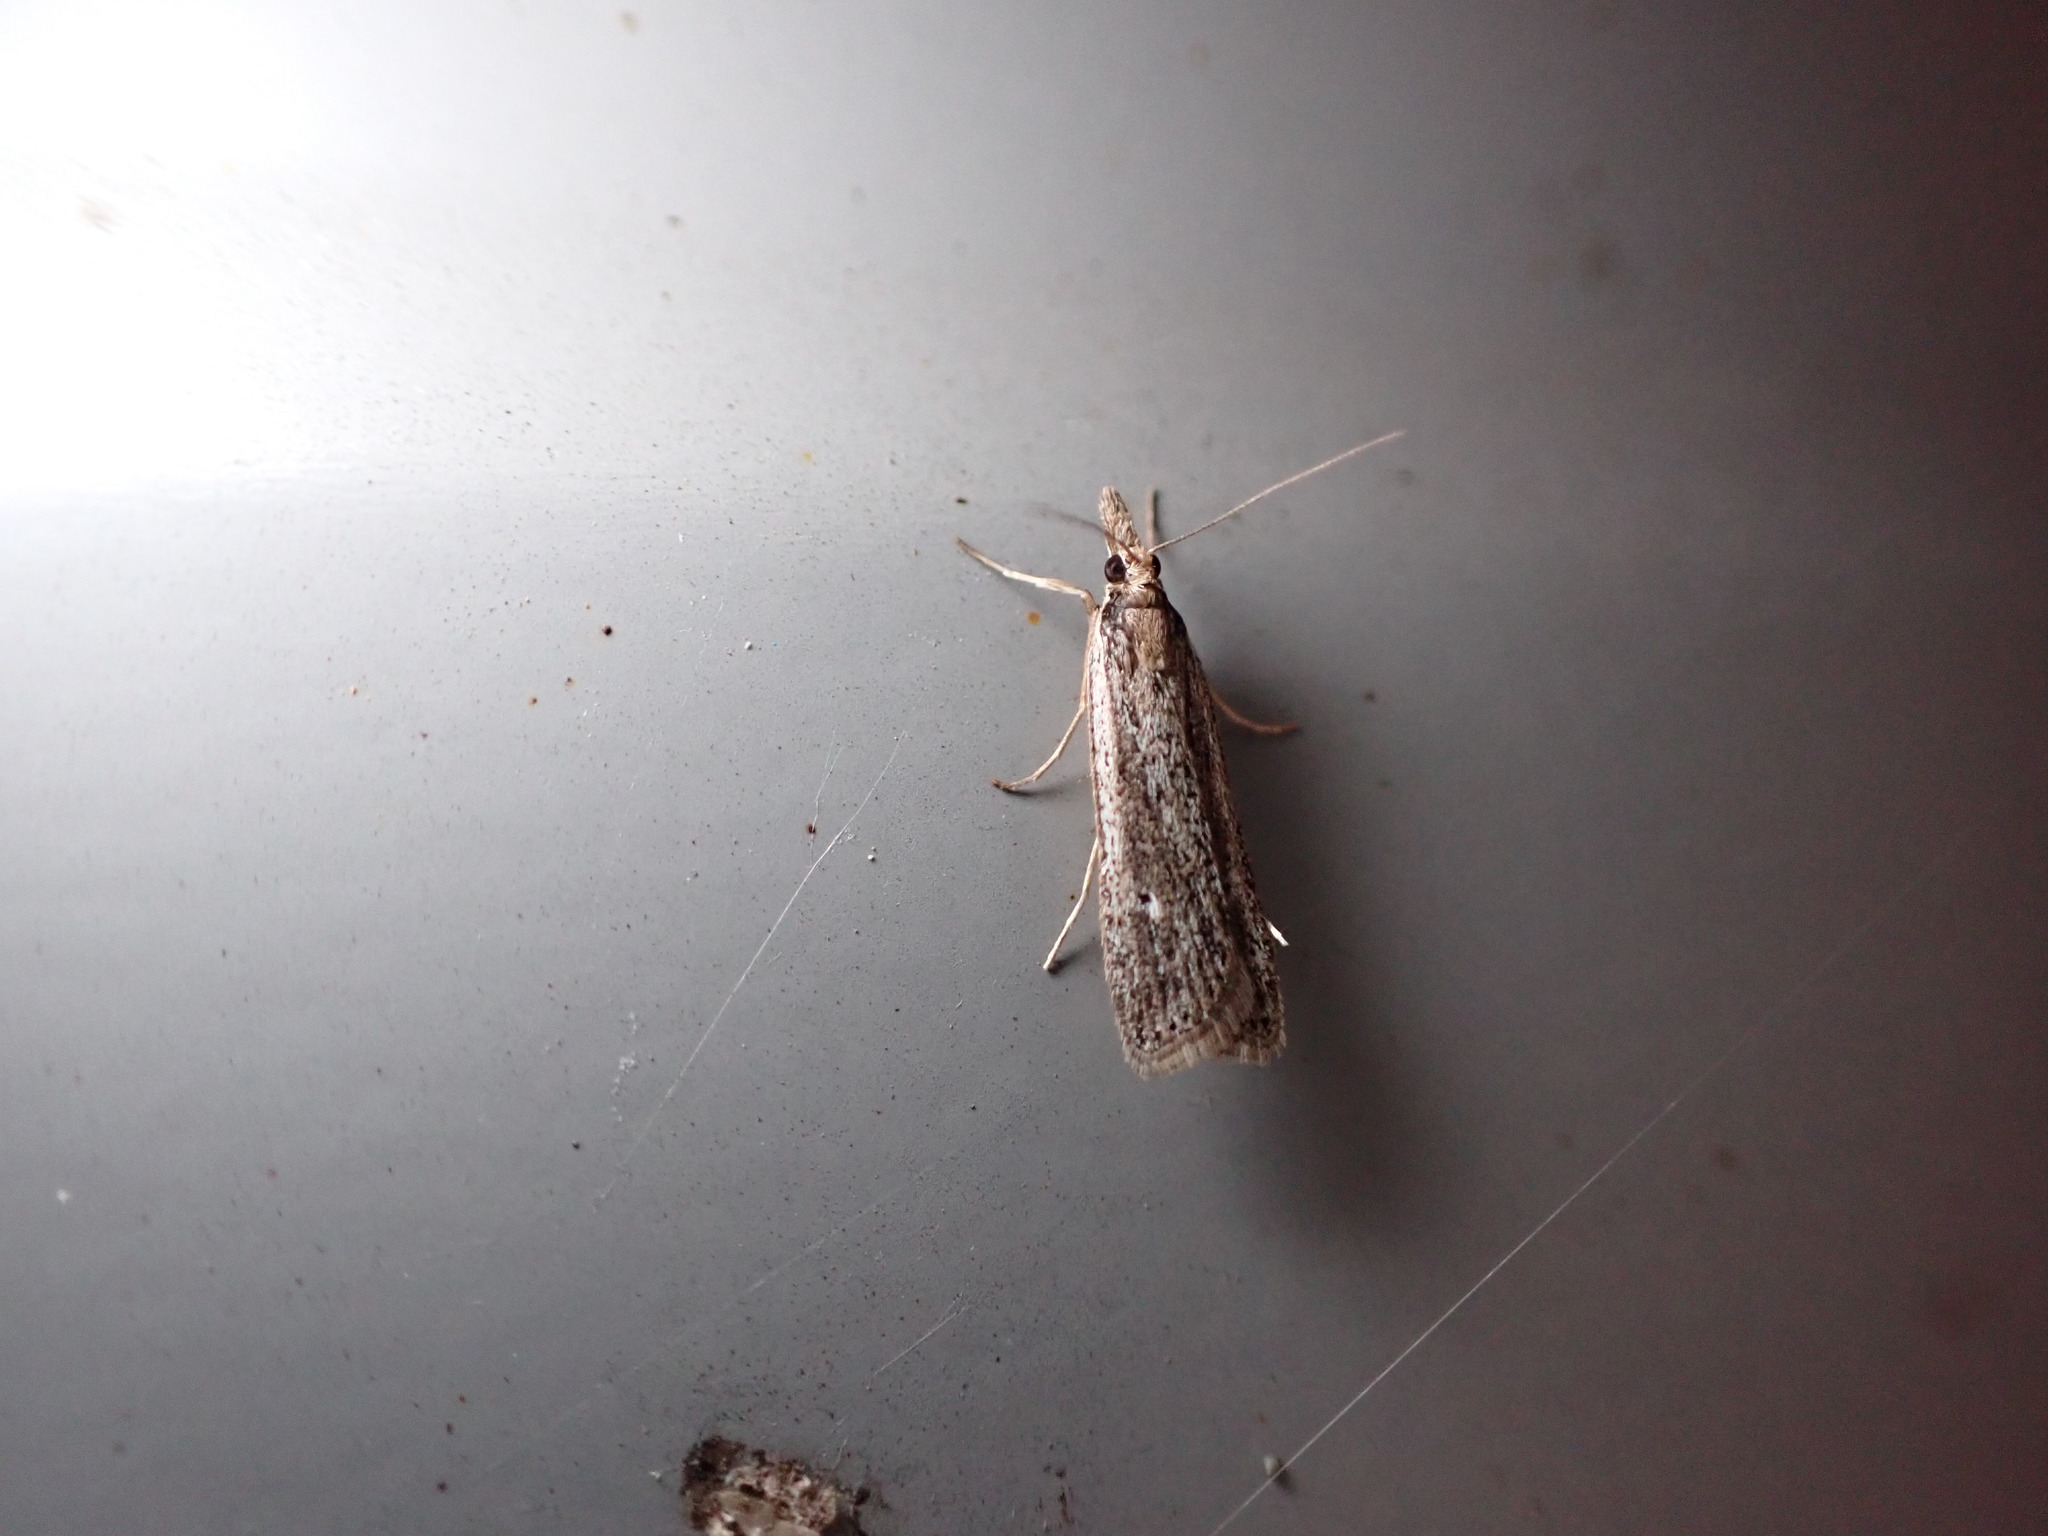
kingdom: Animalia
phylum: Arthropoda
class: Insecta
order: Lepidoptera
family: Crambidae
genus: Eudonia
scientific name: Eudonia sabulosella
